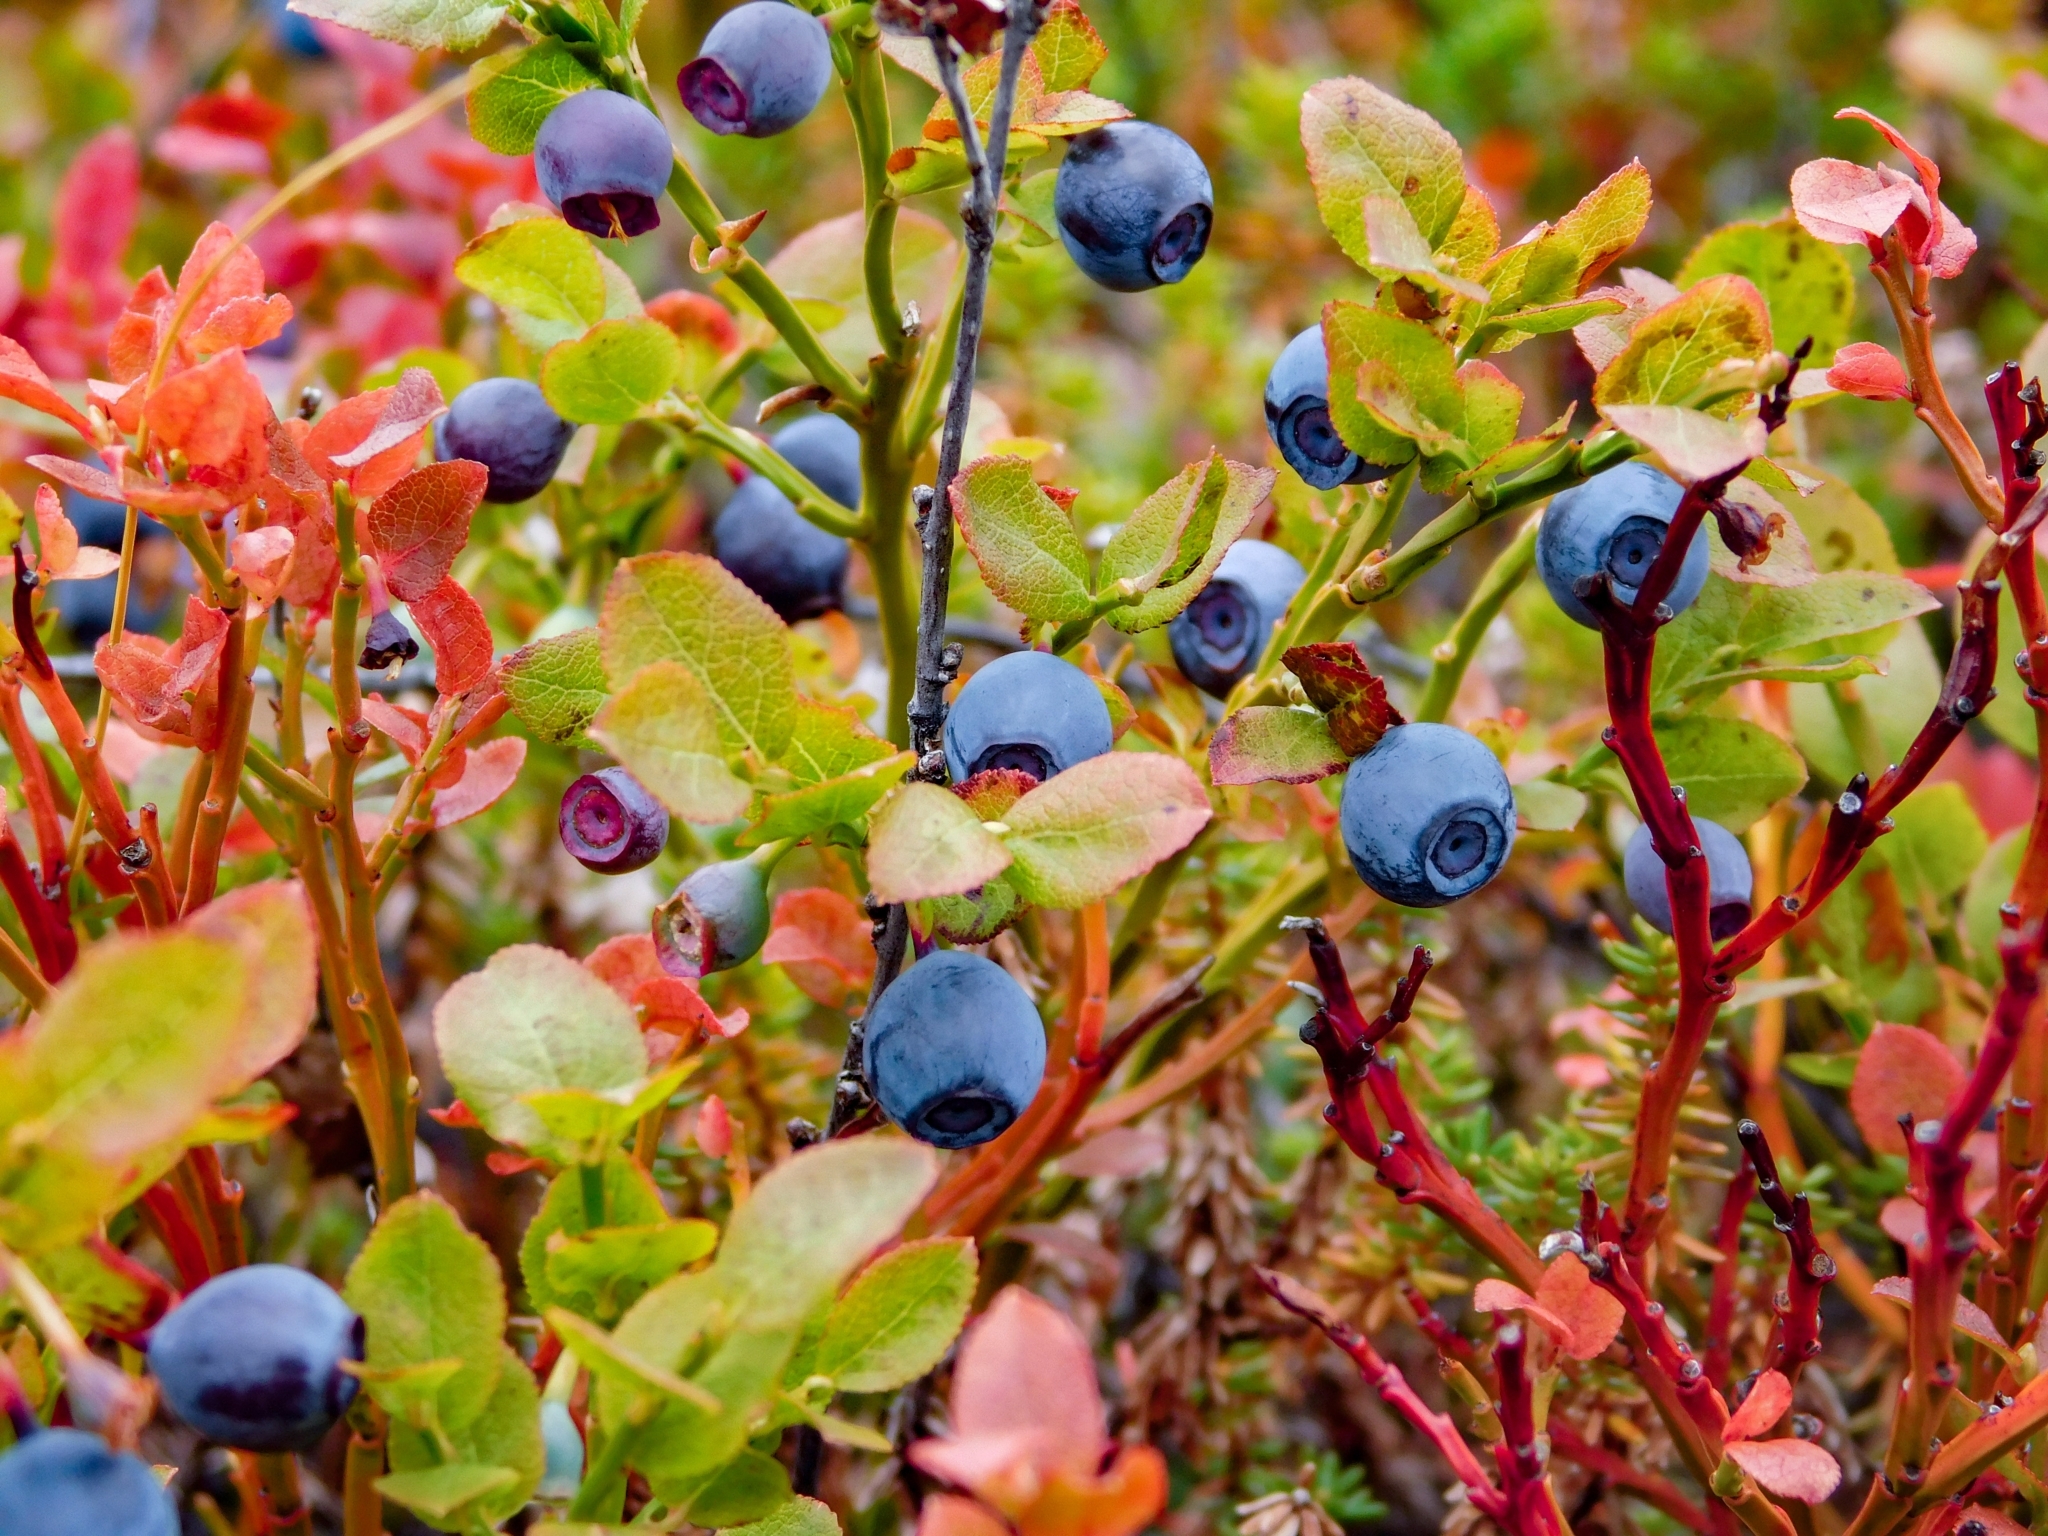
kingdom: Plantae
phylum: Tracheophyta
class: Magnoliopsida
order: Ericales
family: Ericaceae
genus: Vaccinium
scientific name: Vaccinium myrtillus
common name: Bilberry
